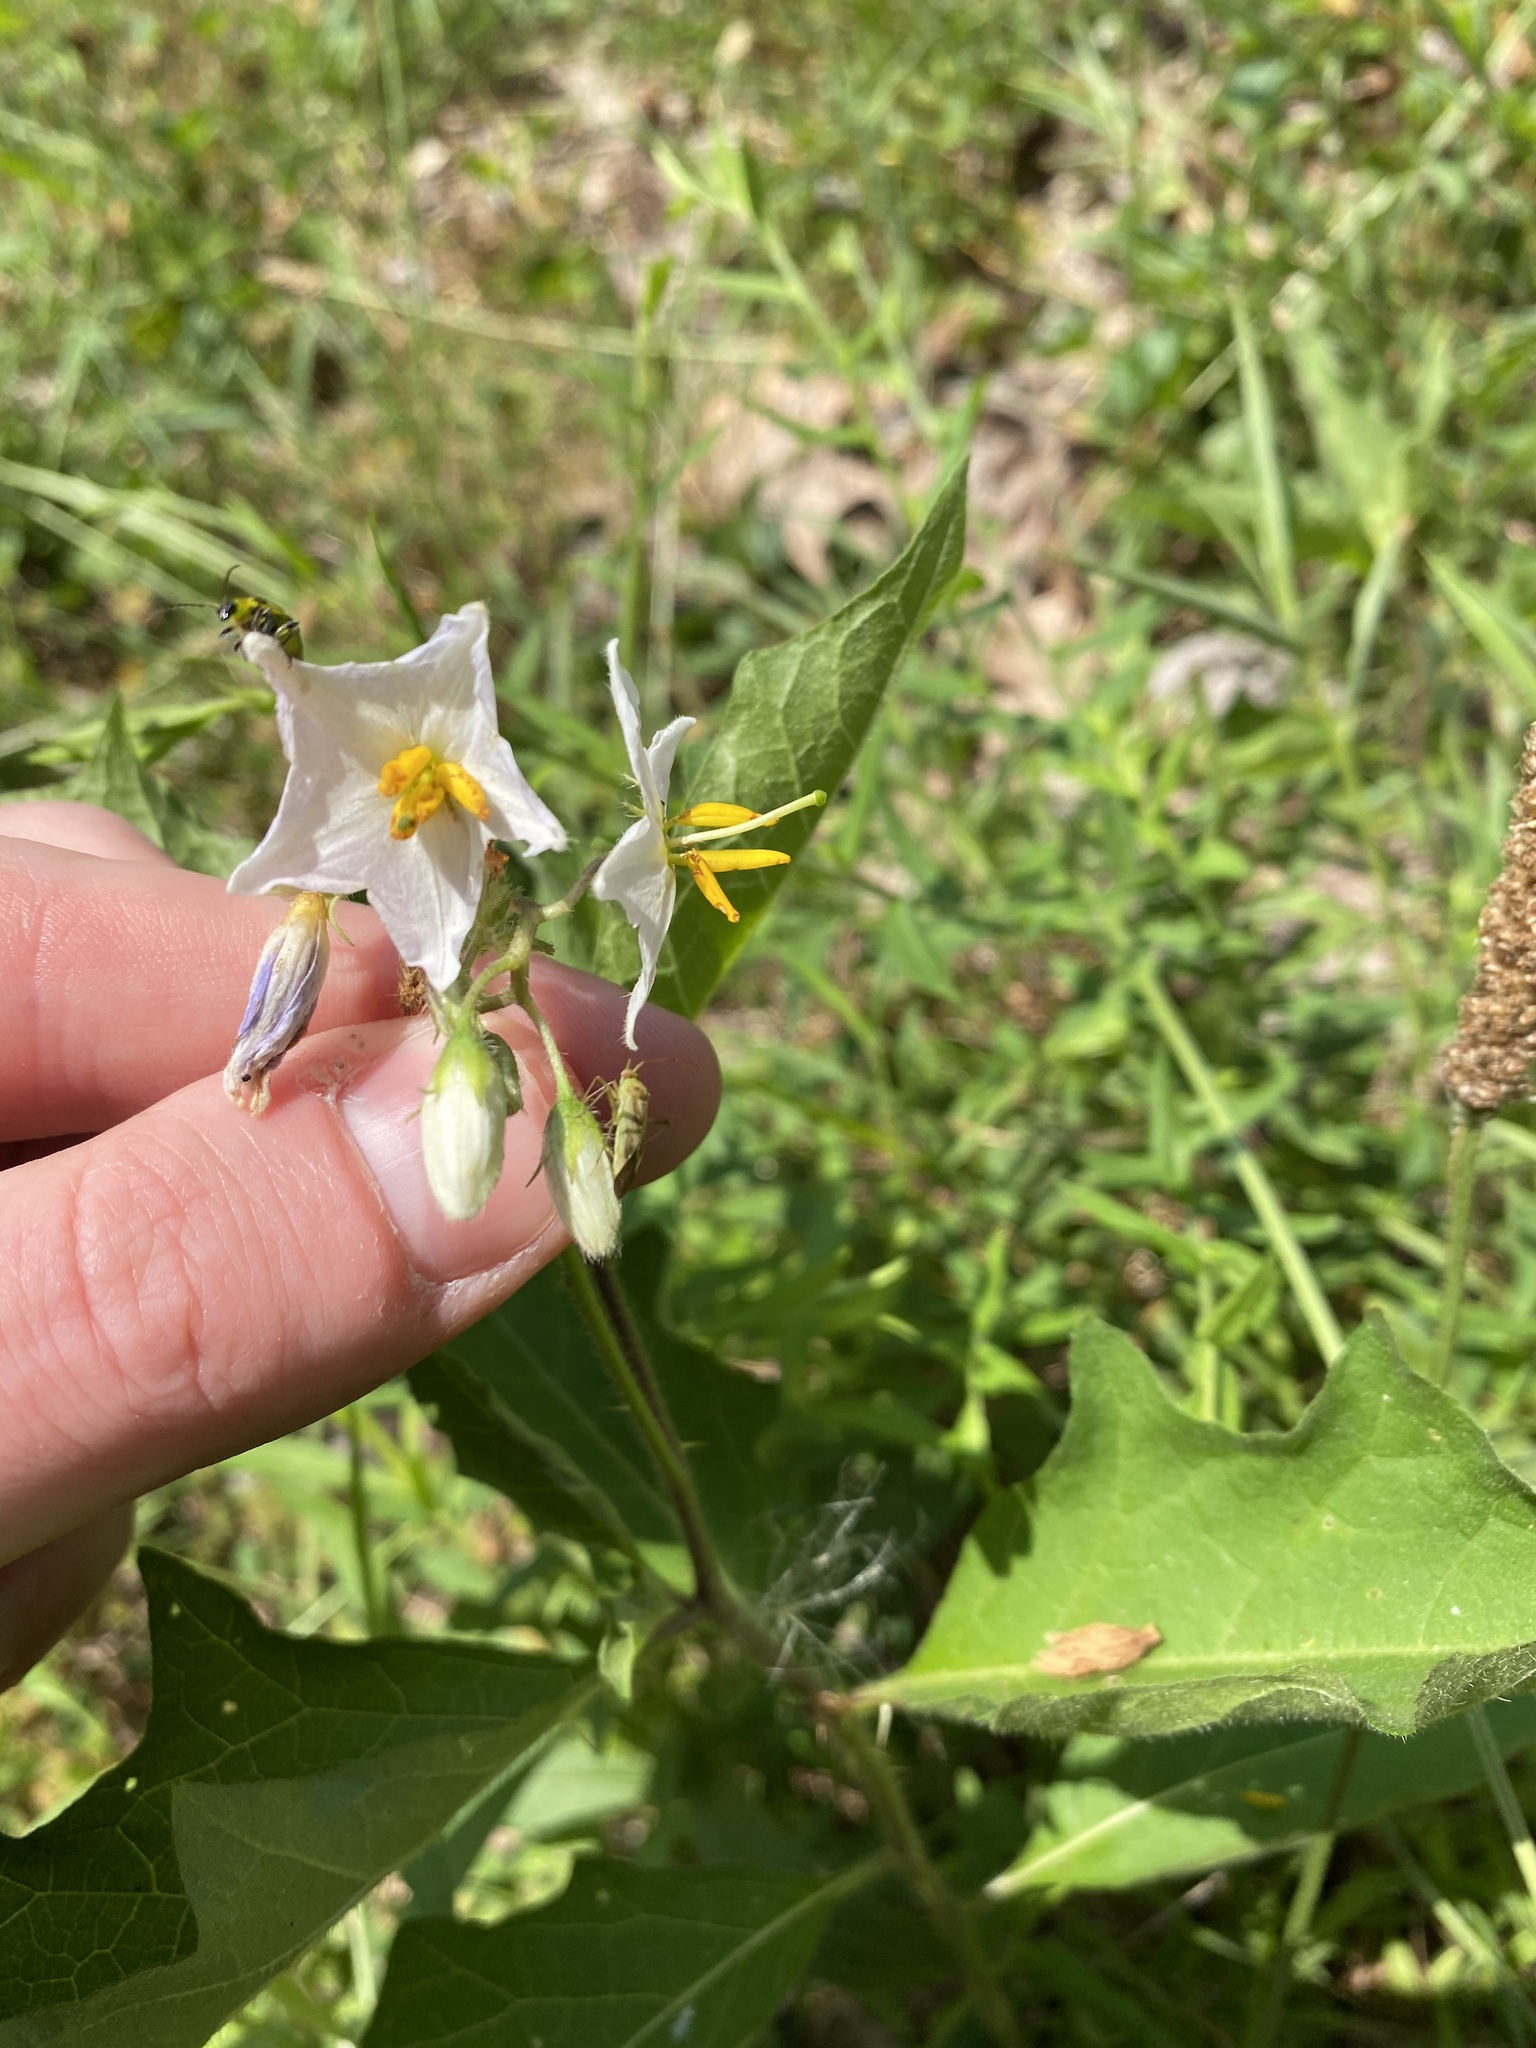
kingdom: Plantae
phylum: Tracheophyta
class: Magnoliopsida
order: Solanales
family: Solanaceae
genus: Solanum
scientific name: Solanum carolinense
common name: Horse-nettle
